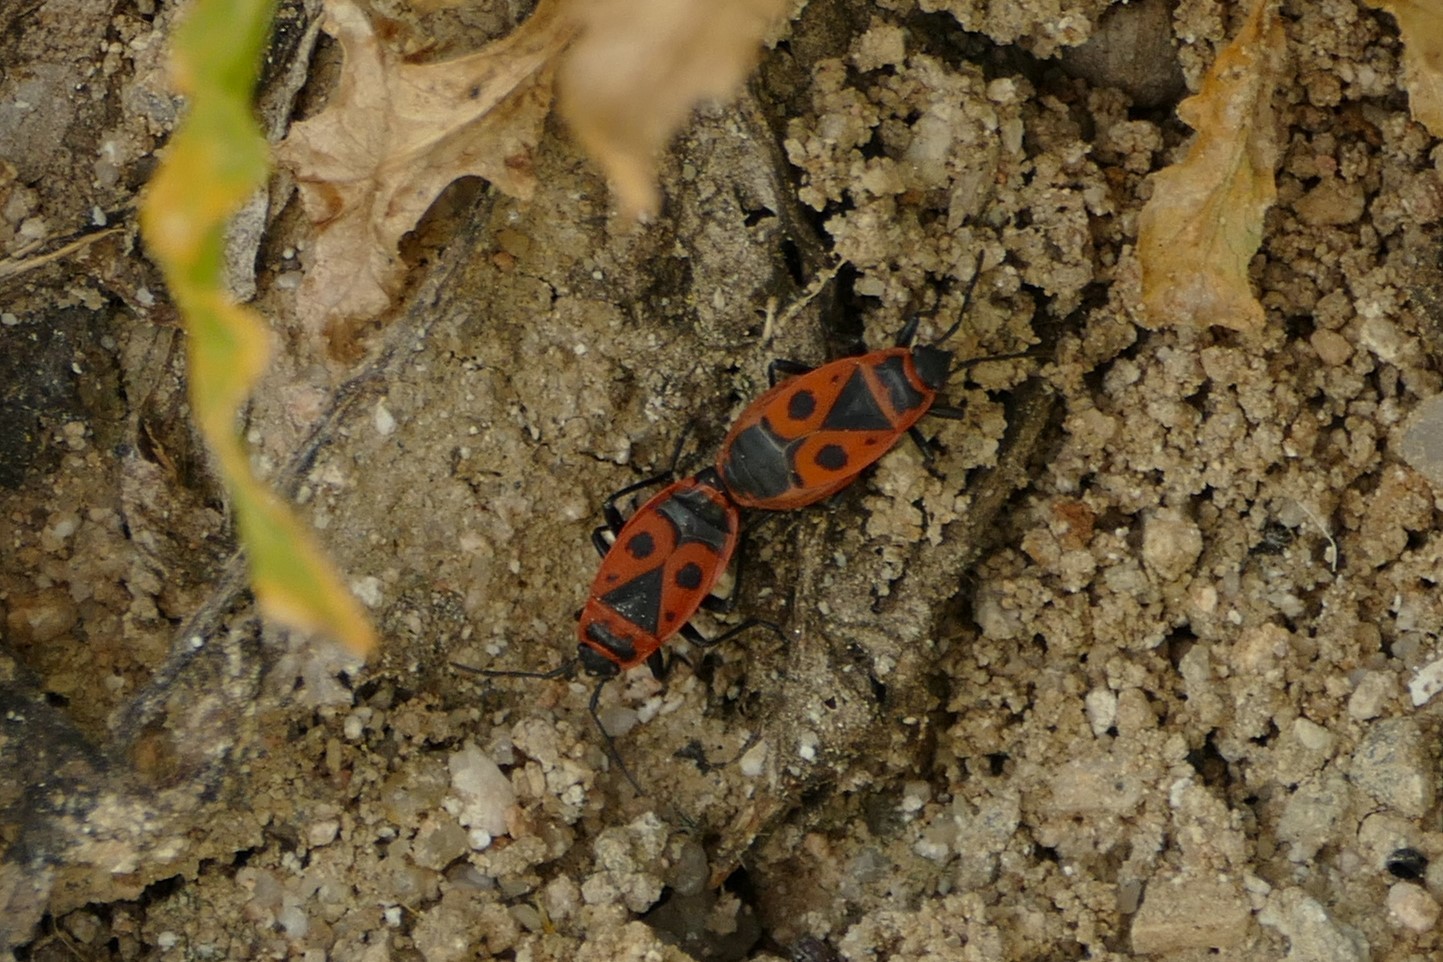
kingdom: Animalia
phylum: Arthropoda
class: Insecta
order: Hemiptera
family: Pyrrhocoridae
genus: Pyrrhocoris
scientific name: Pyrrhocoris apterus
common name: Firebug
